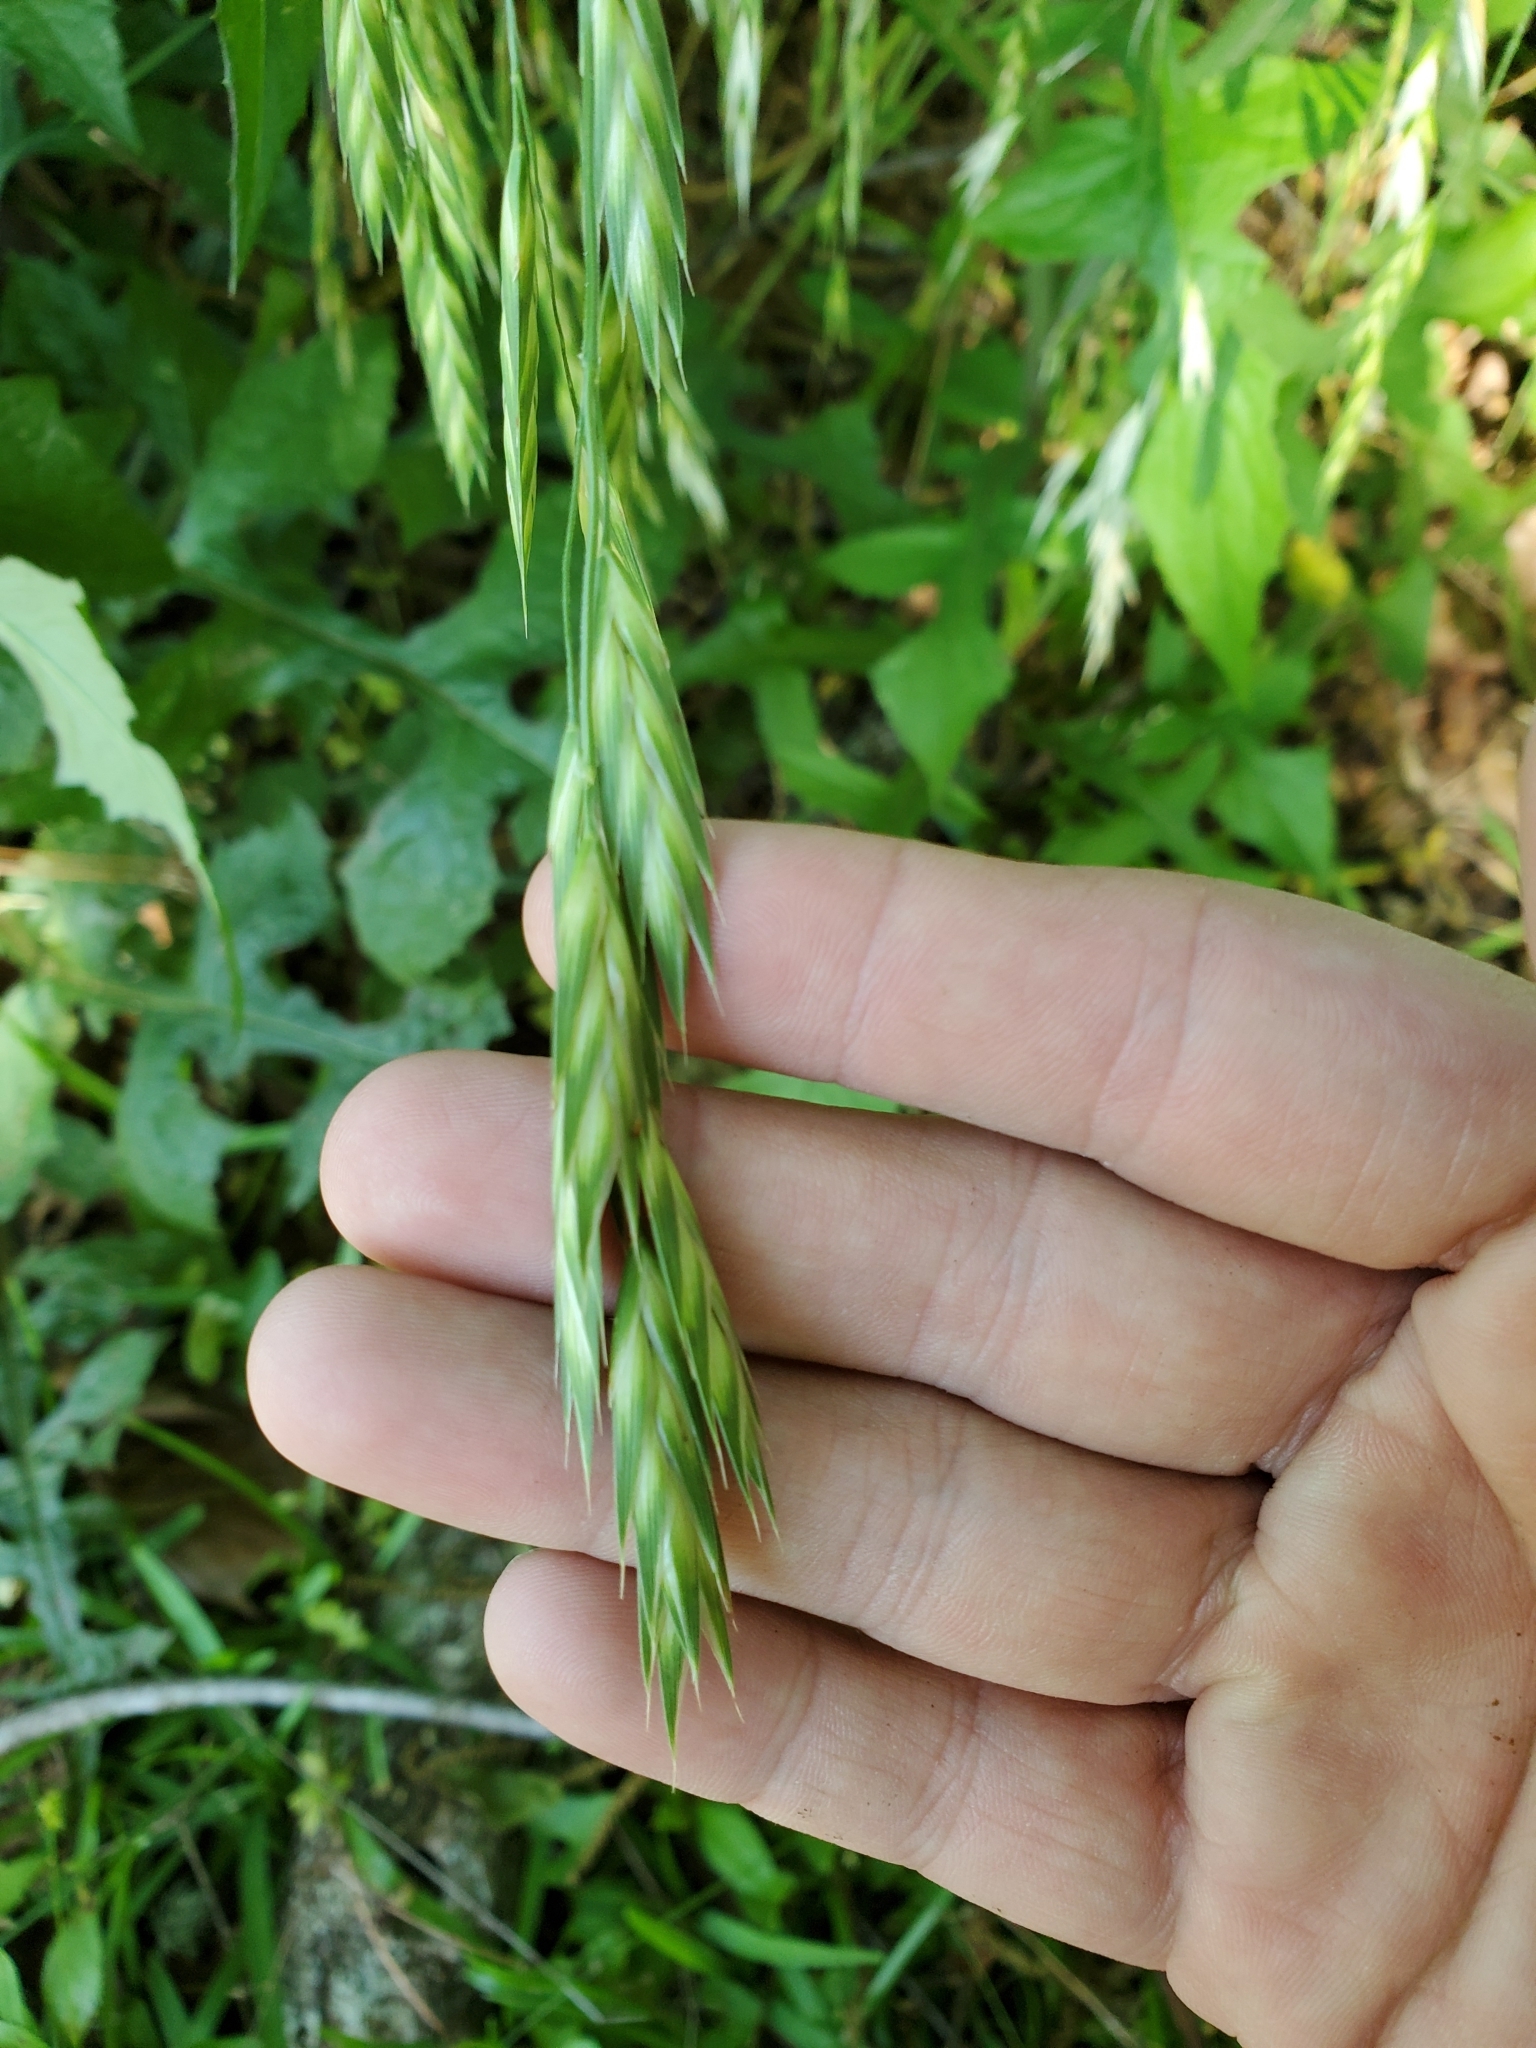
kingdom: Plantae
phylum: Tracheophyta
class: Liliopsida
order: Poales
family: Poaceae
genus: Bromus
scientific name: Bromus catharticus
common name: Rescuegrass
